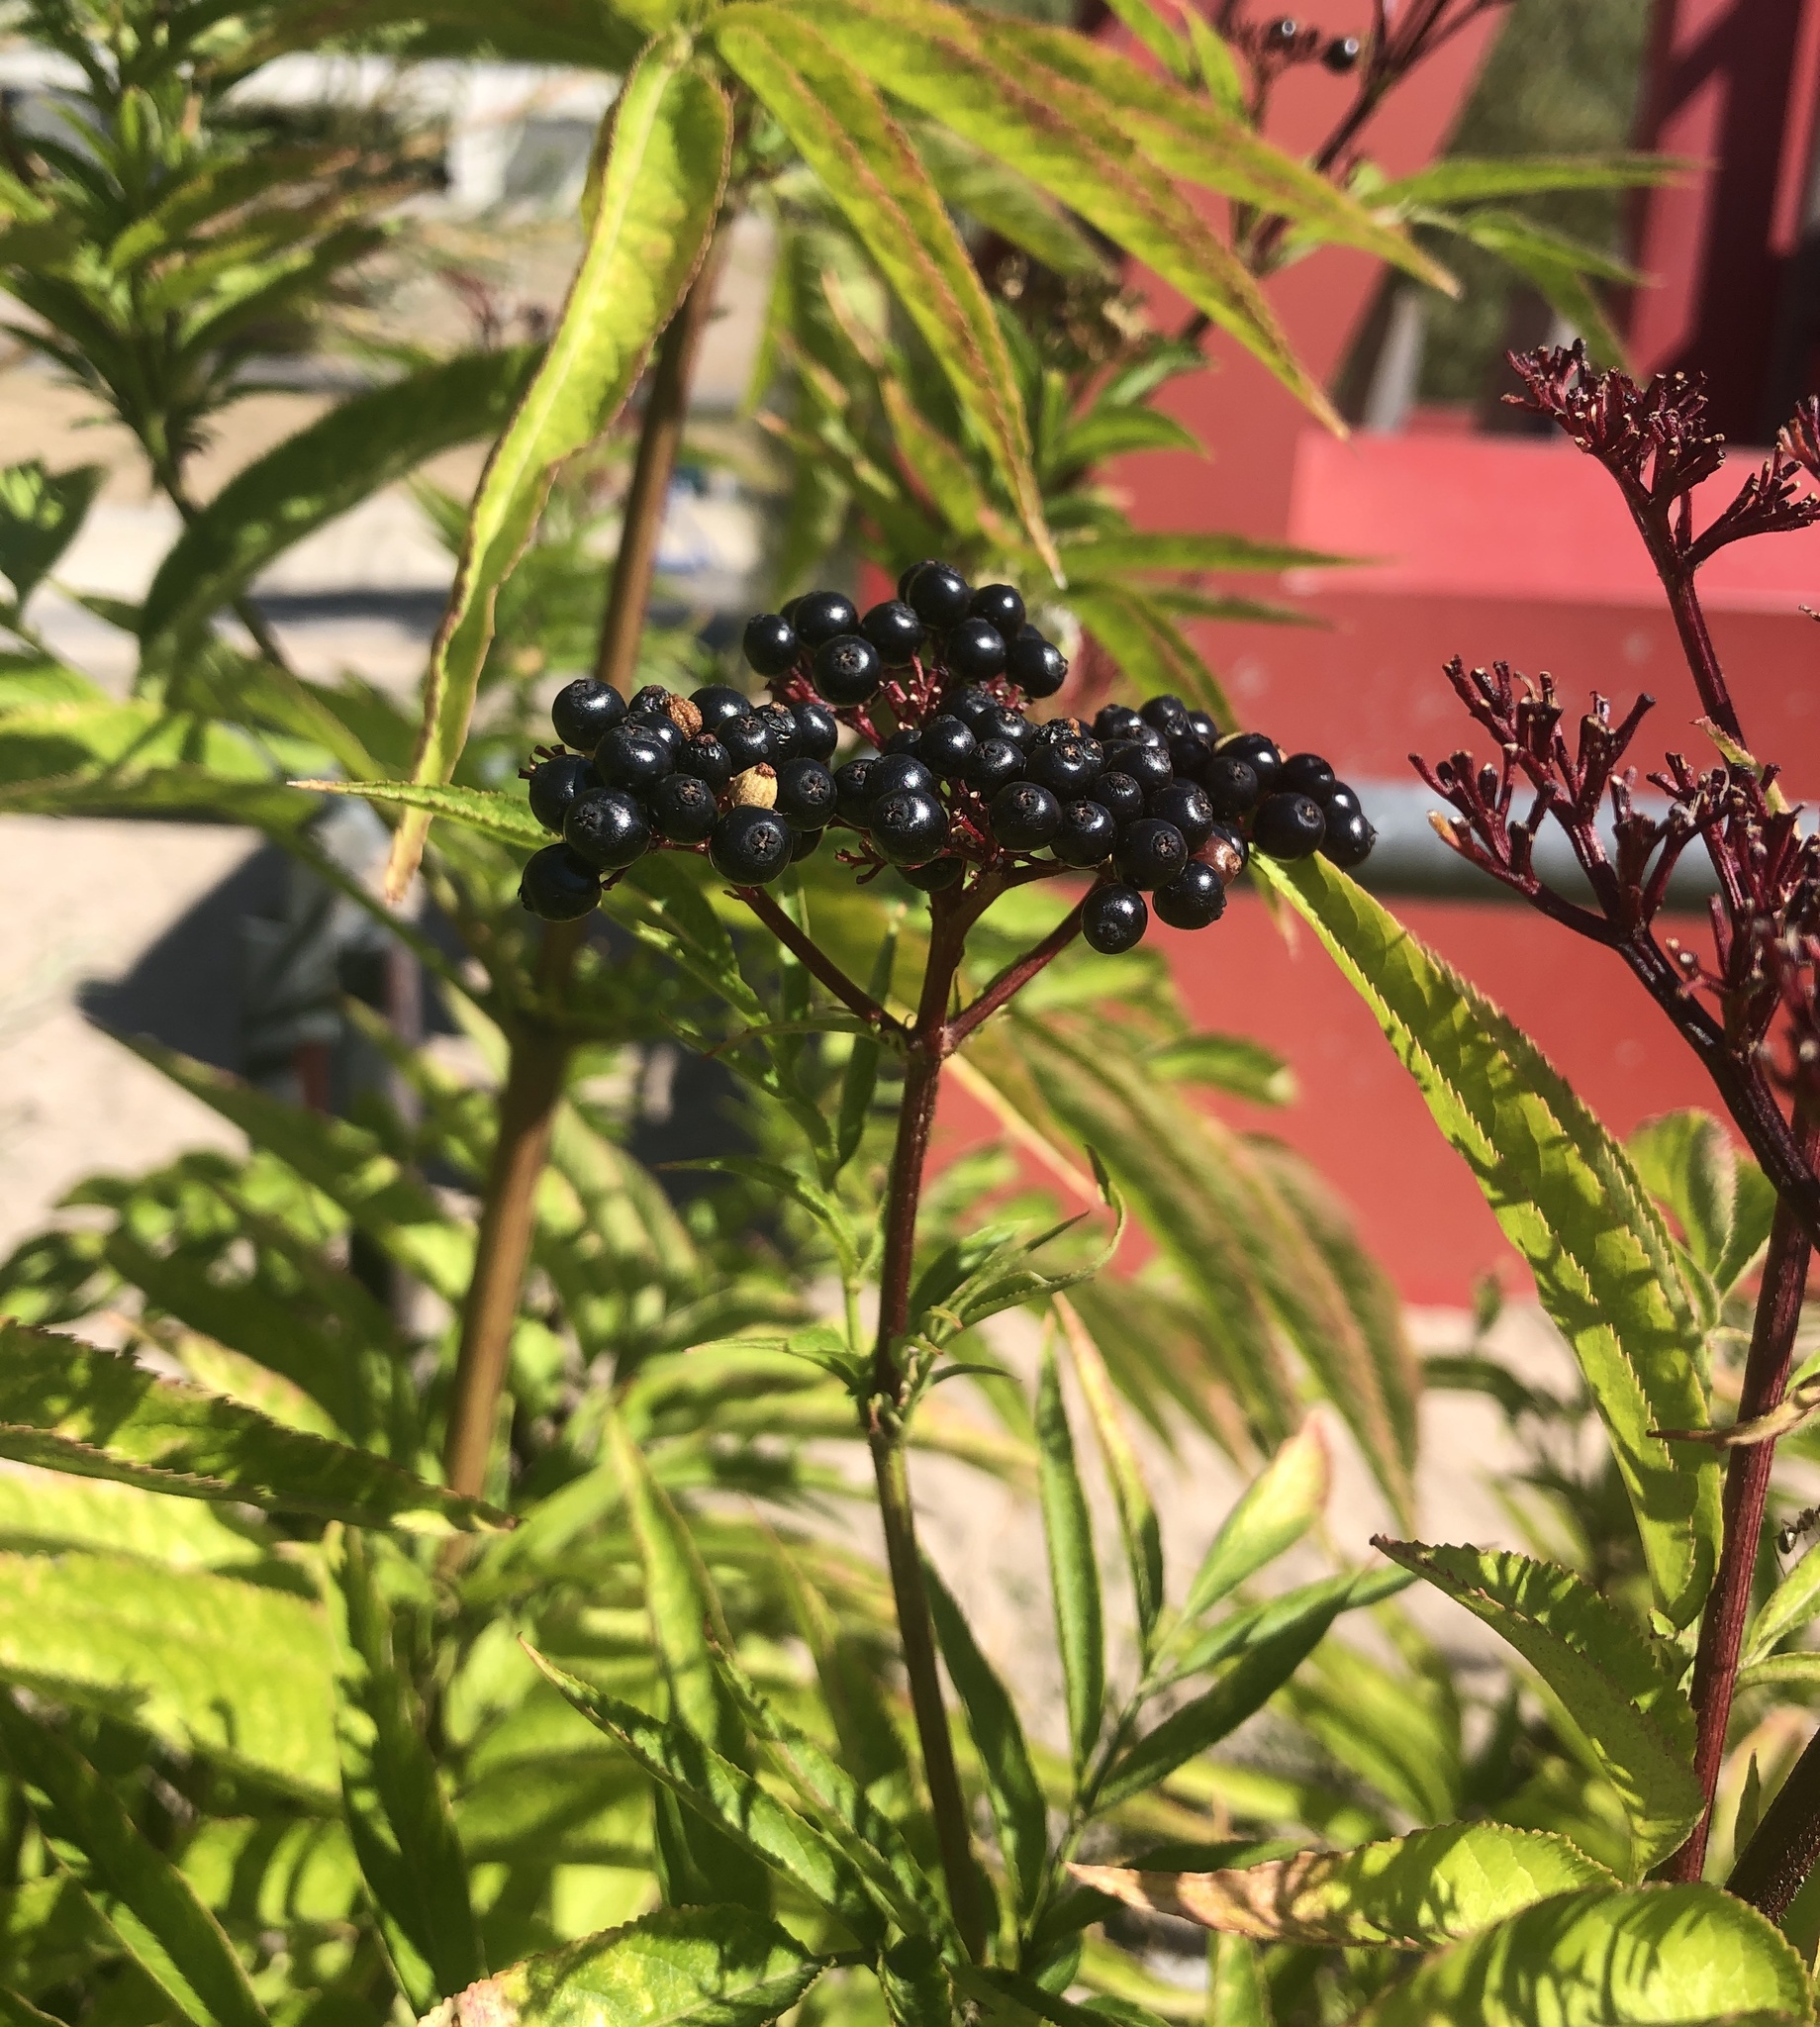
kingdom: Plantae
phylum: Tracheophyta
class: Magnoliopsida
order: Dipsacales
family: Viburnaceae
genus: Sambucus
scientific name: Sambucus ebulus
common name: Dwarf elder
